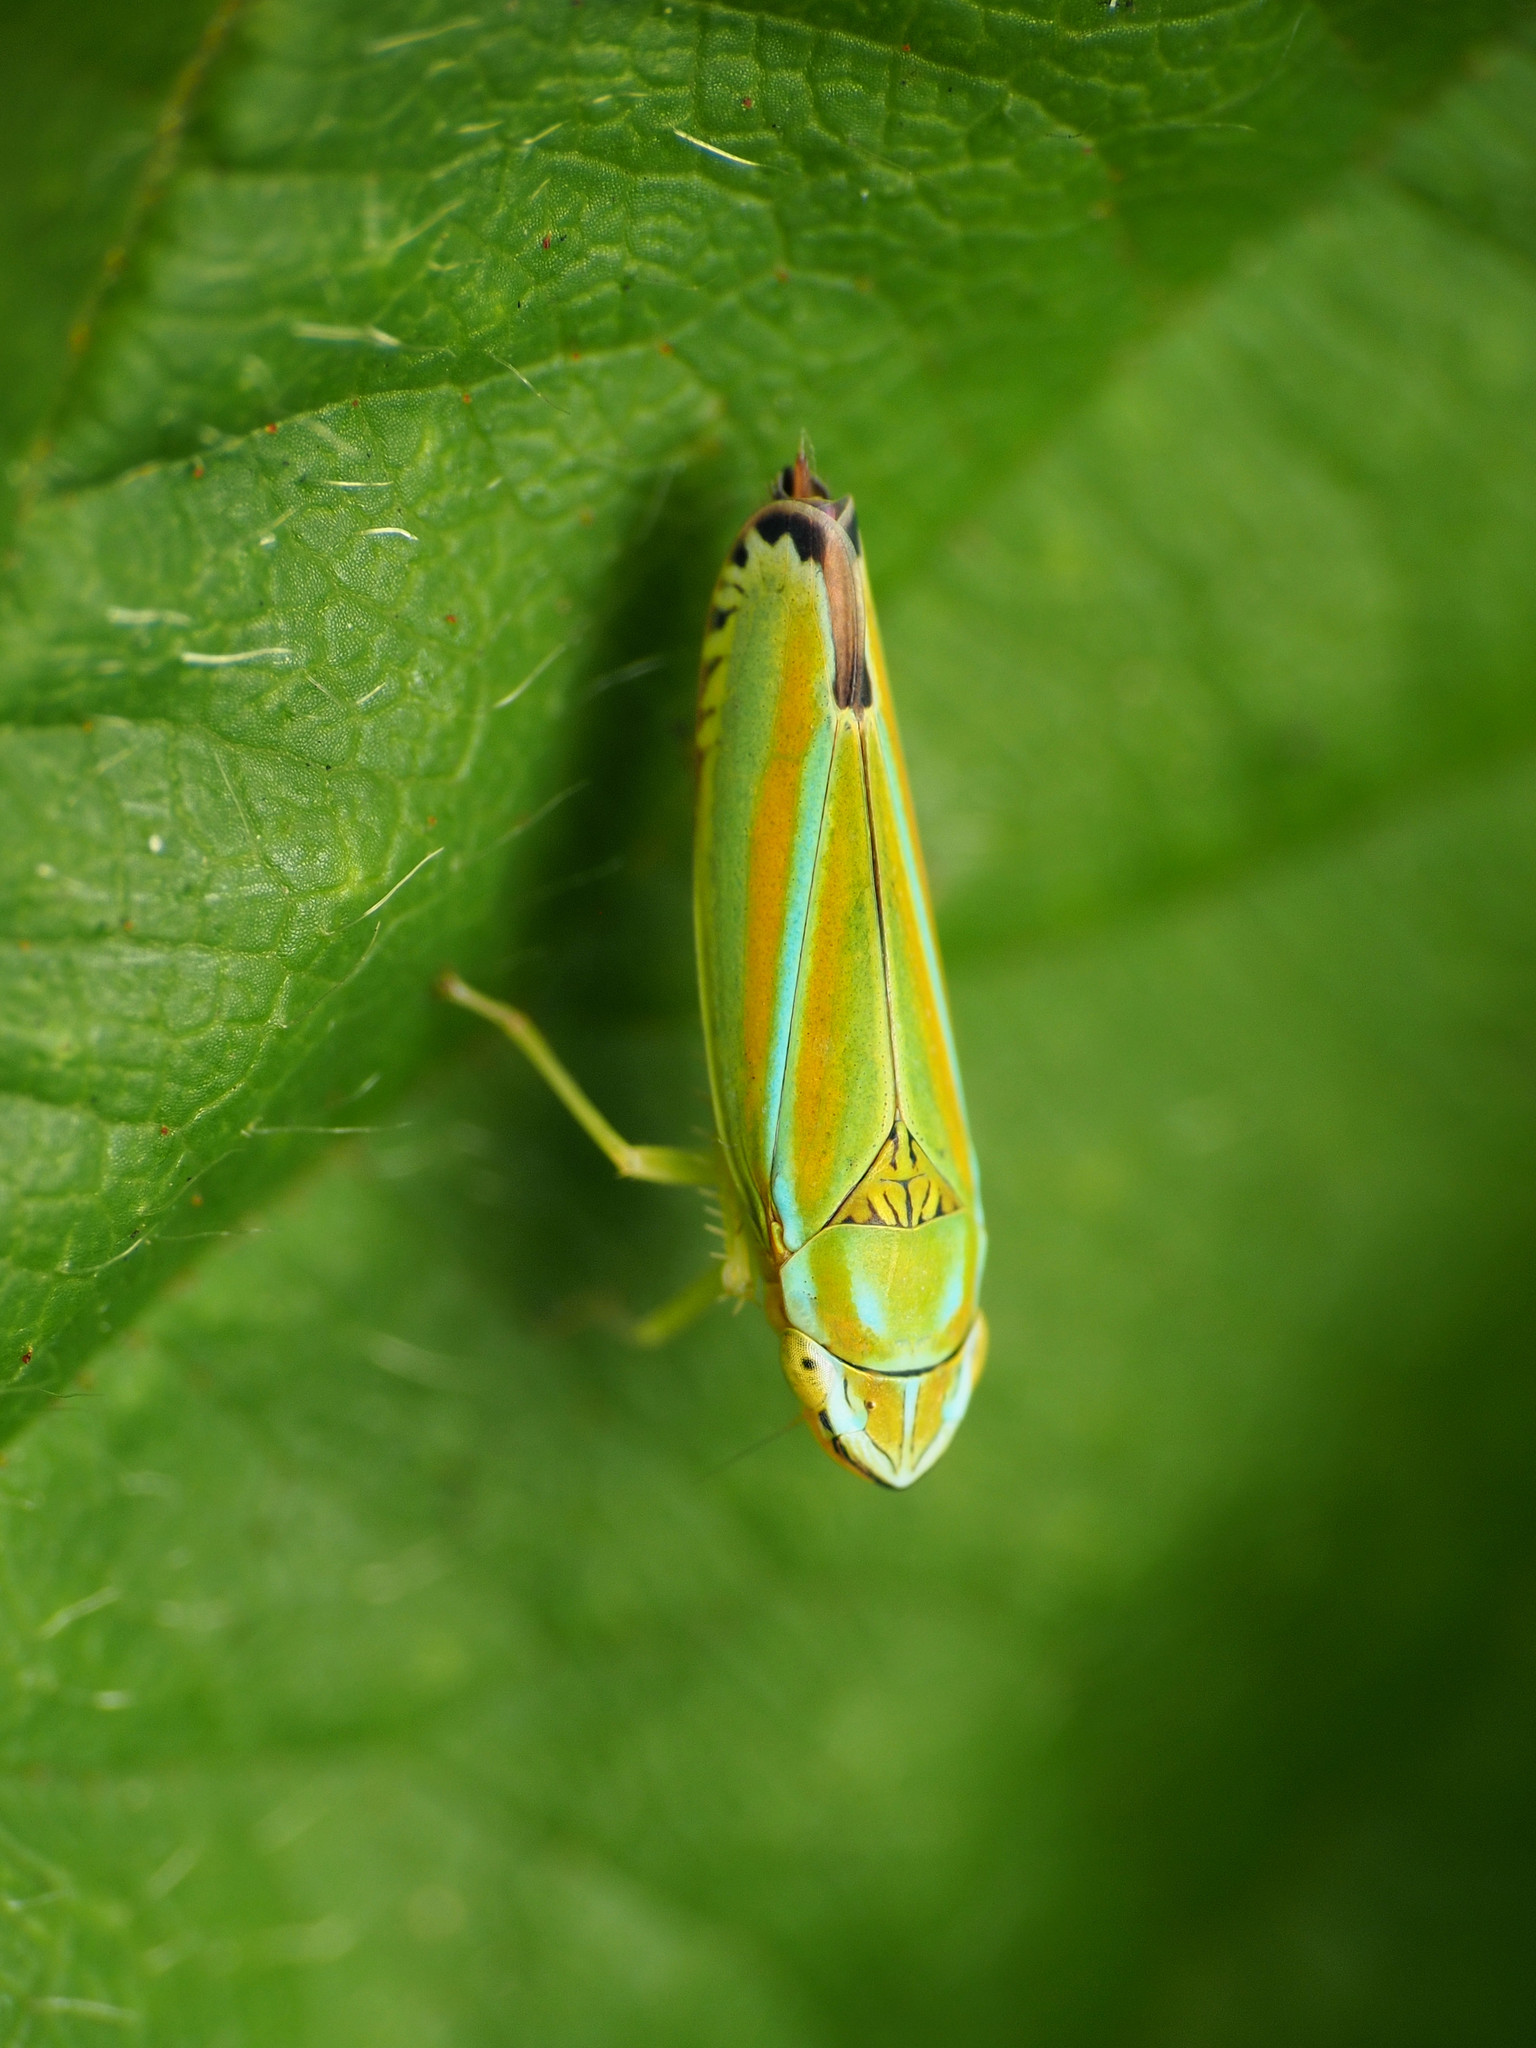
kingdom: Animalia
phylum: Arthropoda
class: Insecta
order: Hemiptera
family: Cicadellidae
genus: Graphocephala
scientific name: Graphocephala versuta
